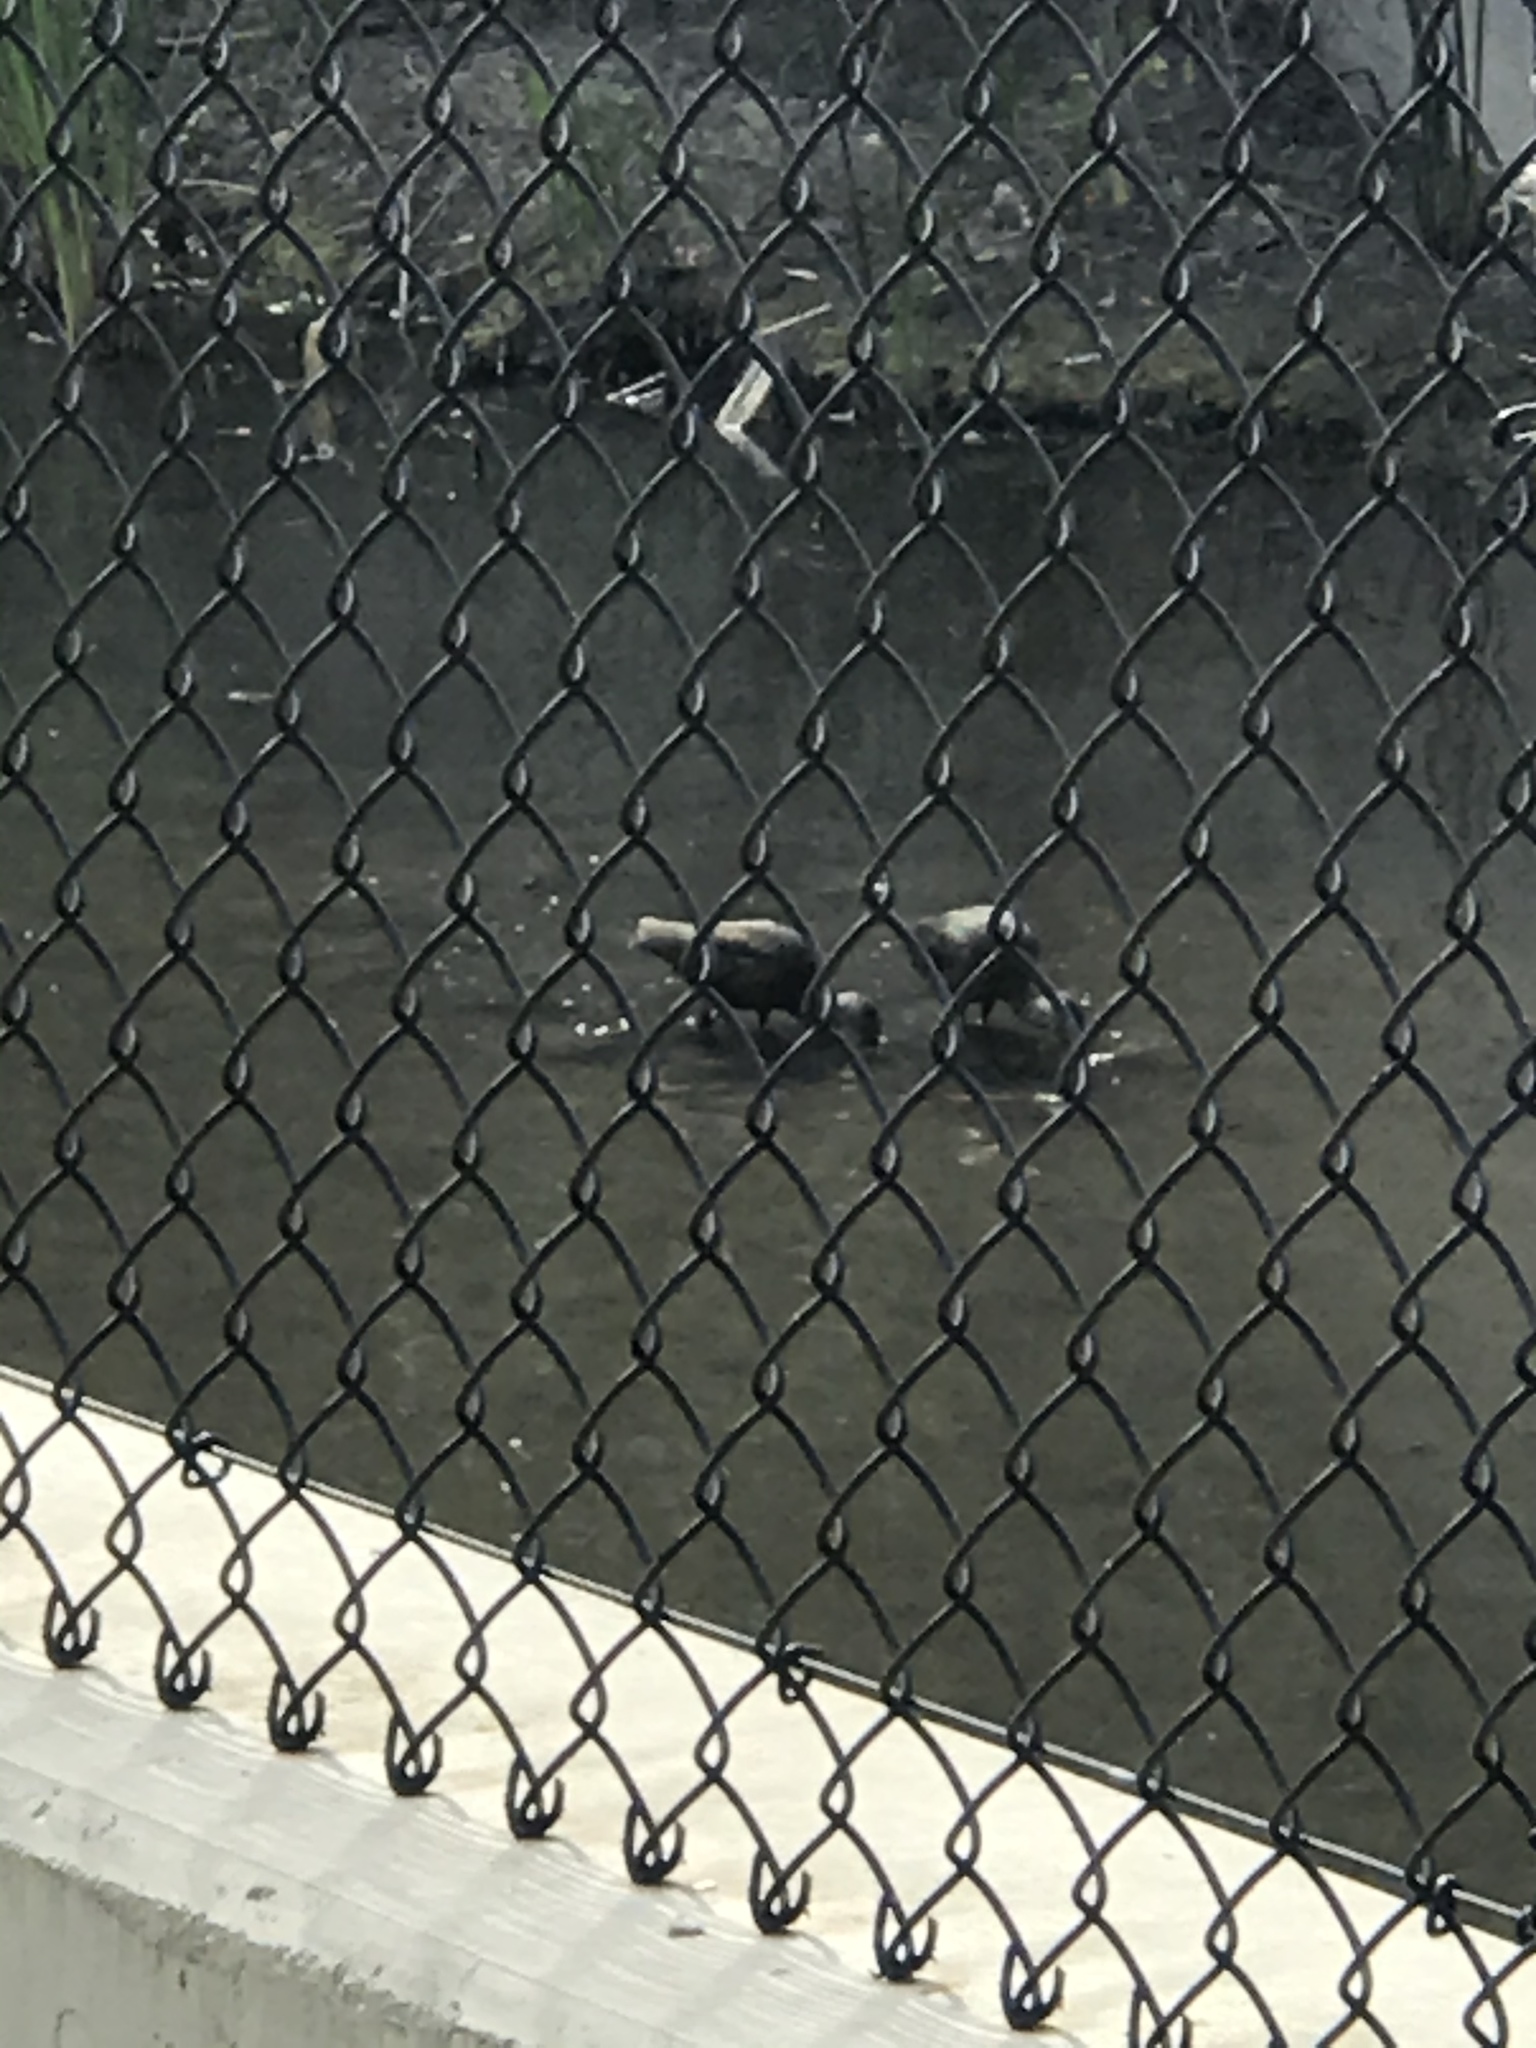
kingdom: Animalia
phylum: Chordata
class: Aves
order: Pelecaniformes
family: Threskiornithidae
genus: Plegadis
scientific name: Plegadis chihi
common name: White-faced ibis
